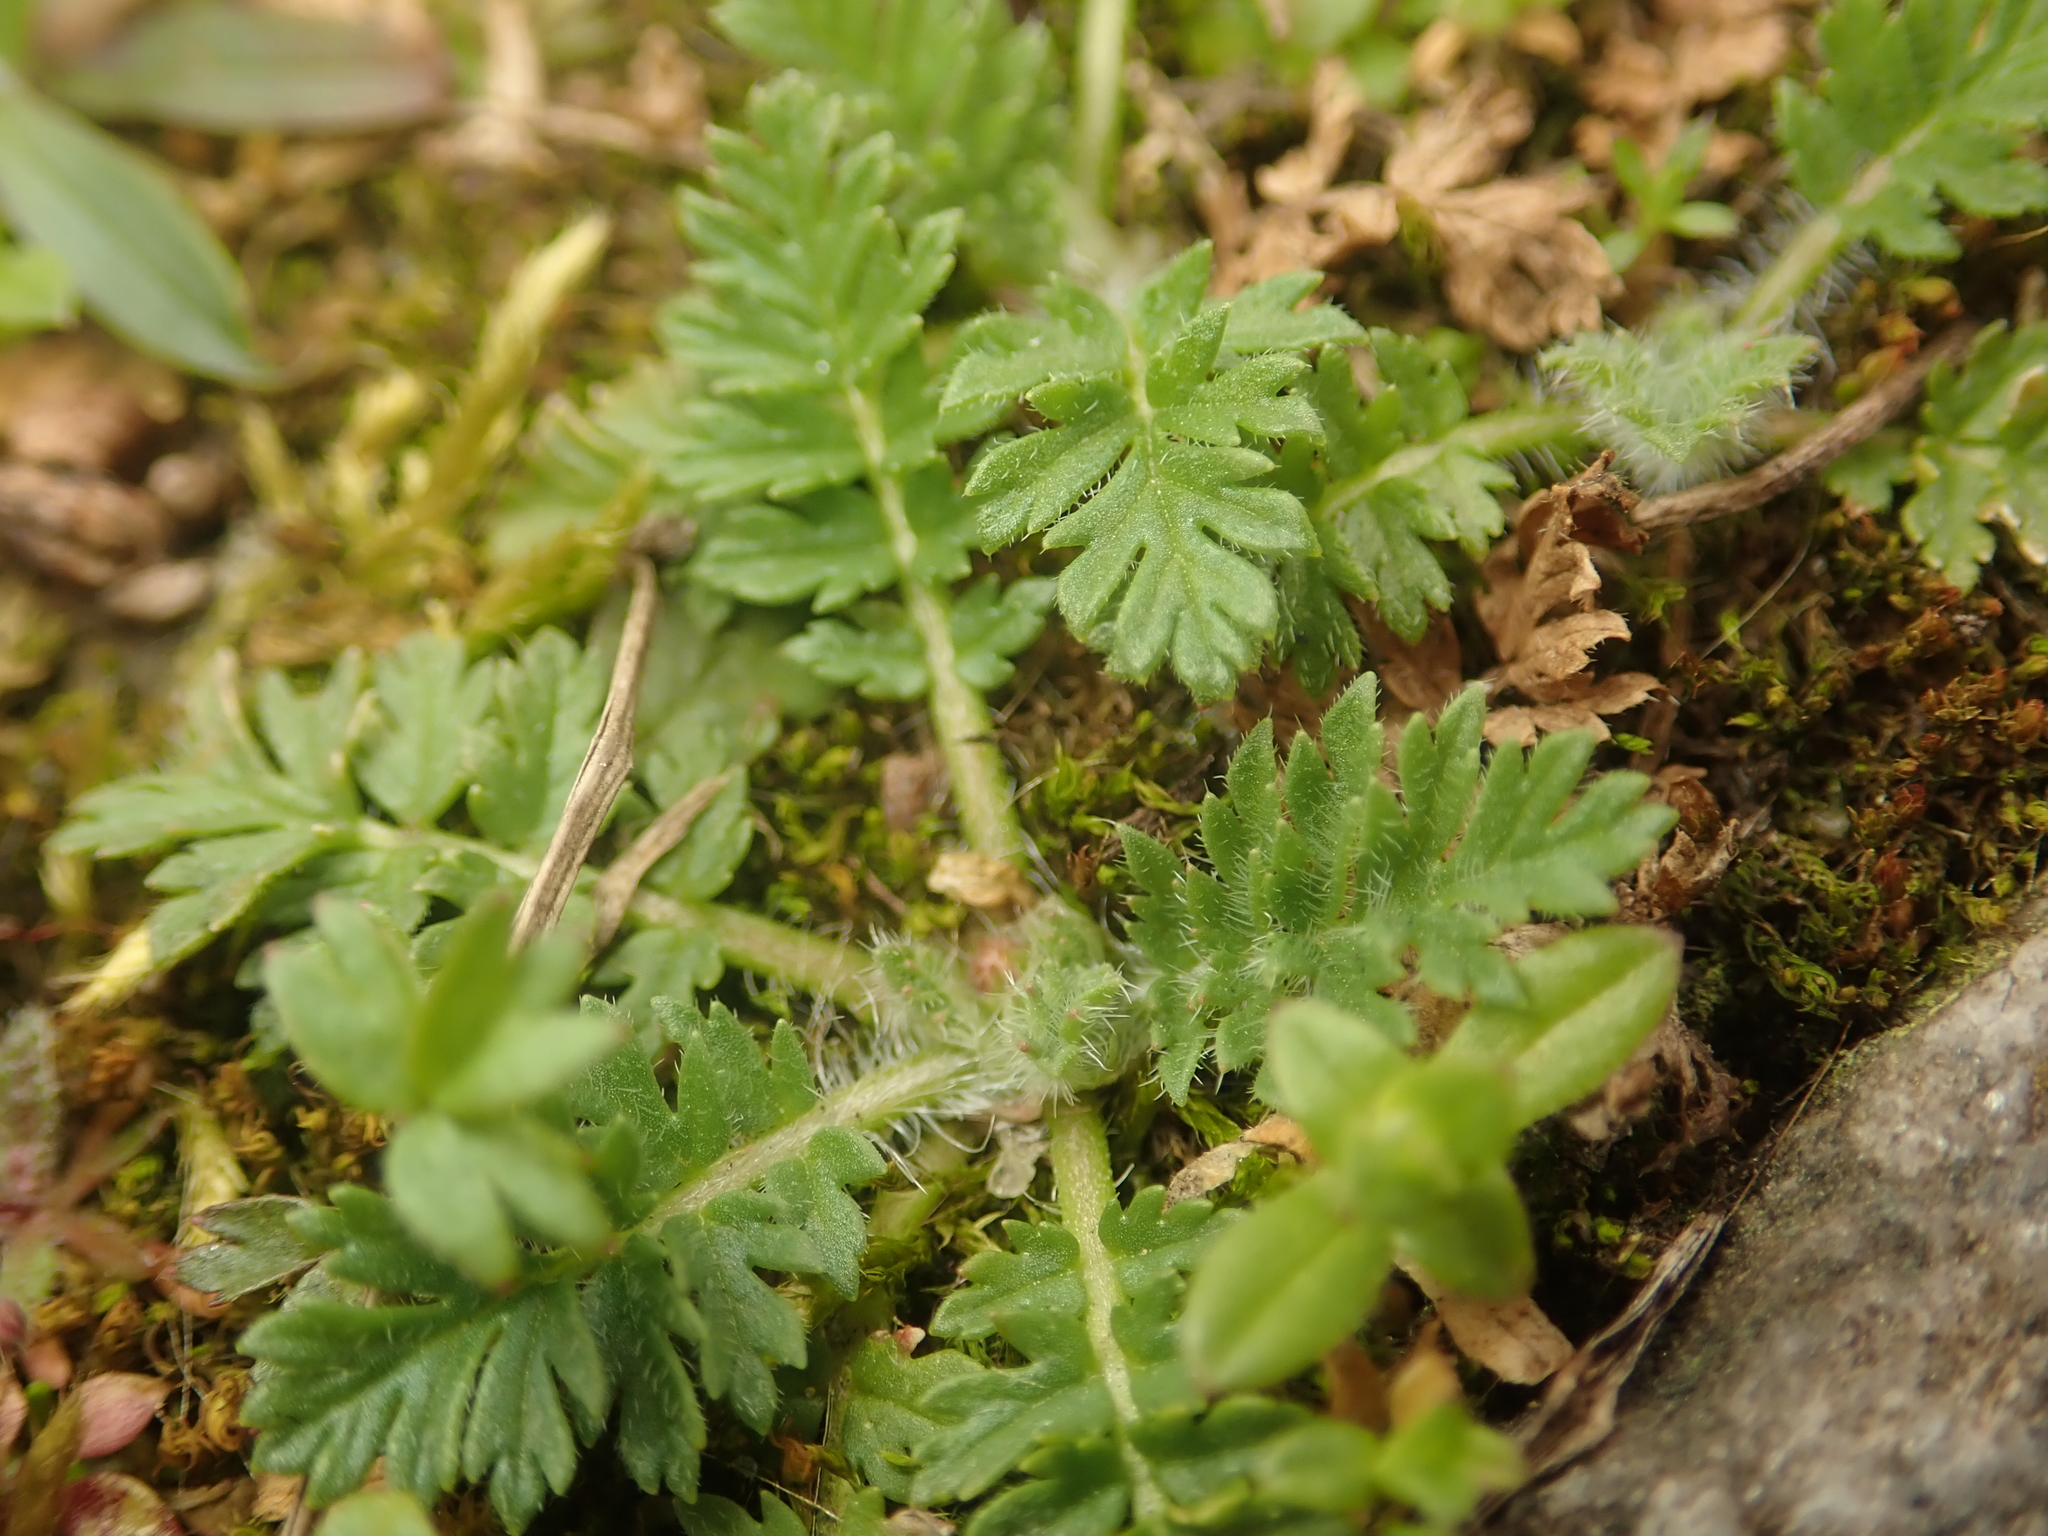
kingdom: Plantae
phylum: Tracheophyta
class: Magnoliopsida
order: Geraniales
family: Geraniaceae
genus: Erodium
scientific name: Erodium cicutarium
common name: Common stork's-bill
